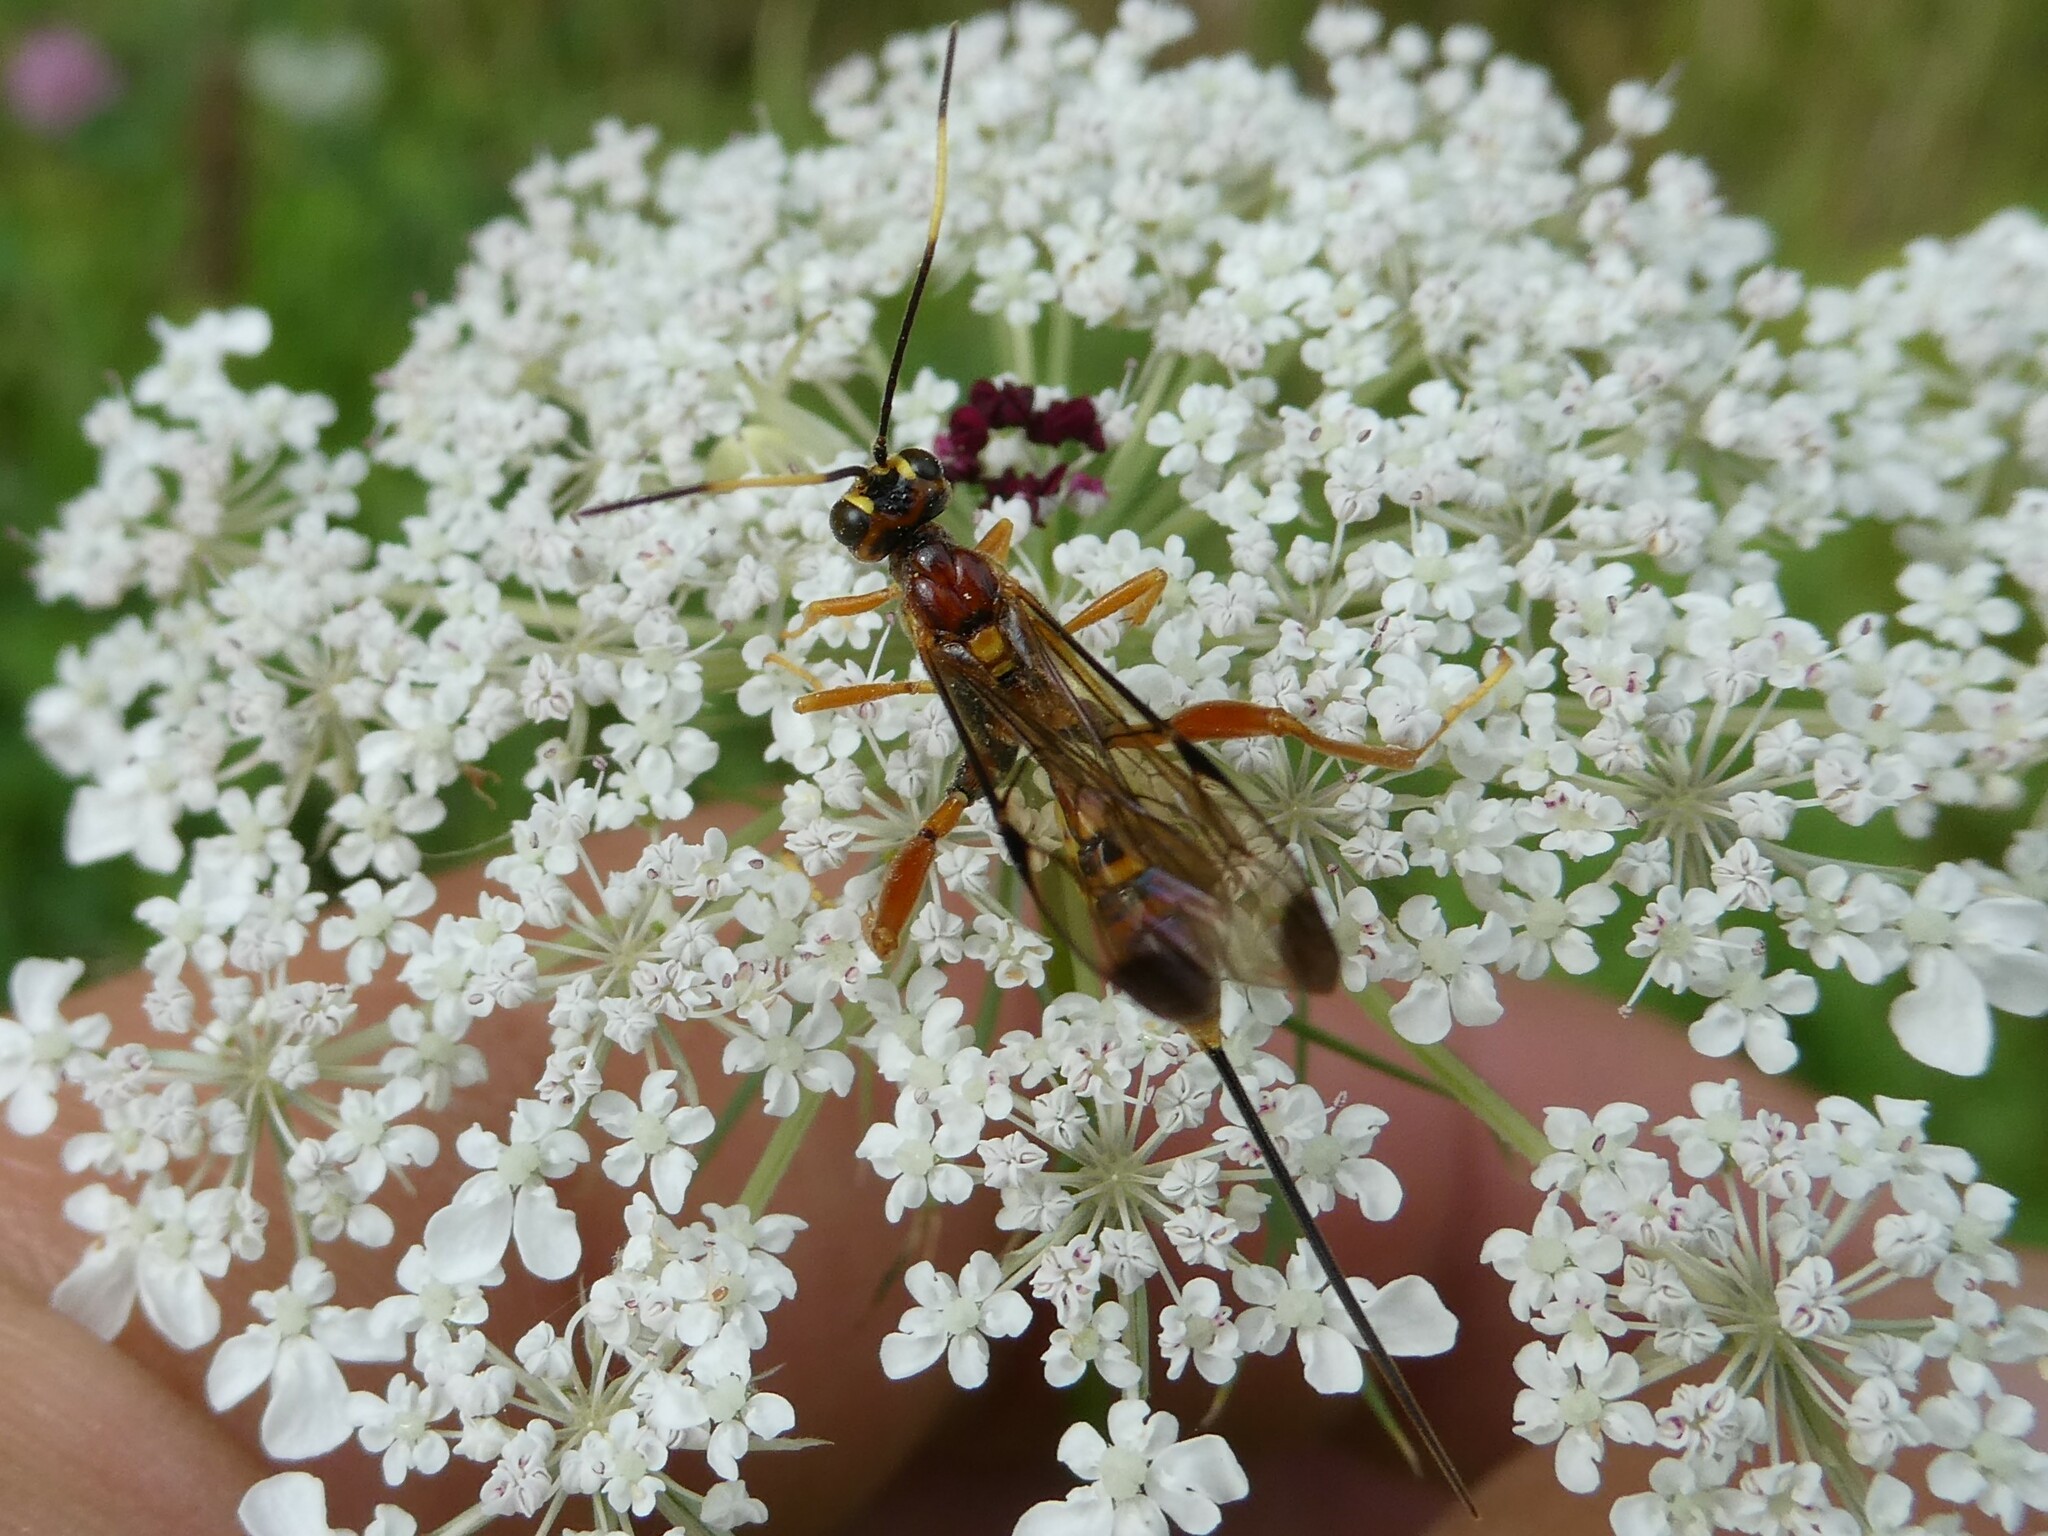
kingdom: Animalia
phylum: Arthropoda
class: Insecta
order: Hymenoptera
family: Ichneumonidae
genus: Spilopteron
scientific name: Spilopteron vicinum
